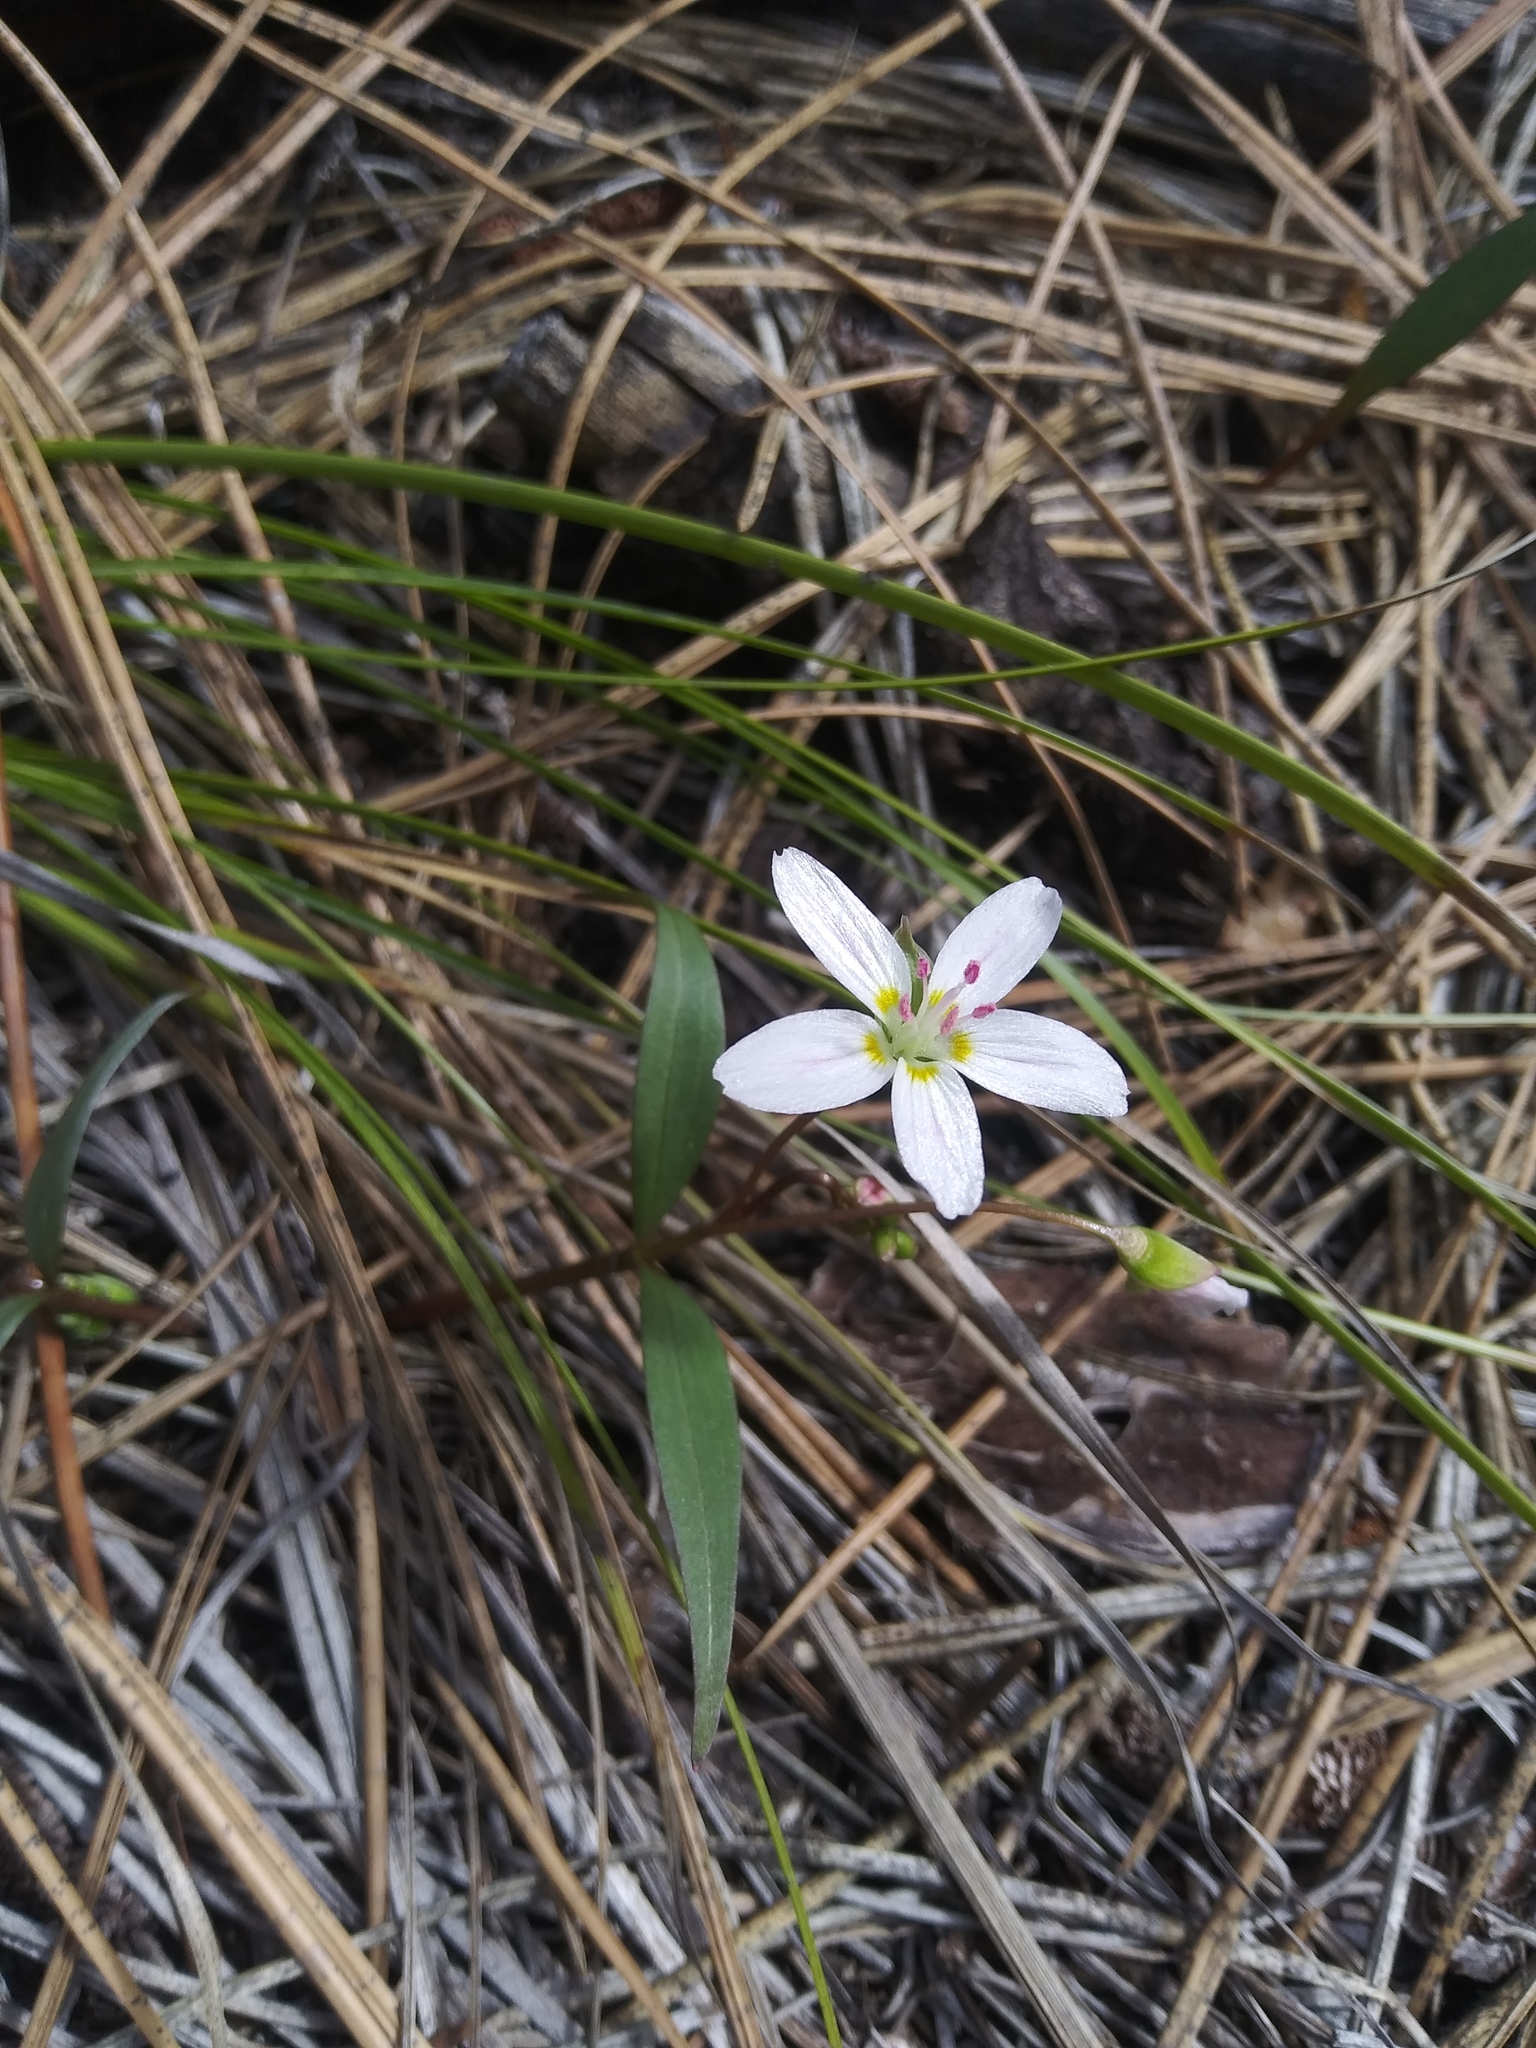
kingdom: Plantae
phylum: Tracheophyta
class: Magnoliopsida
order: Caryophyllales
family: Montiaceae
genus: Claytonia
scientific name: Claytonia lanceolata
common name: Western spring-beauty
